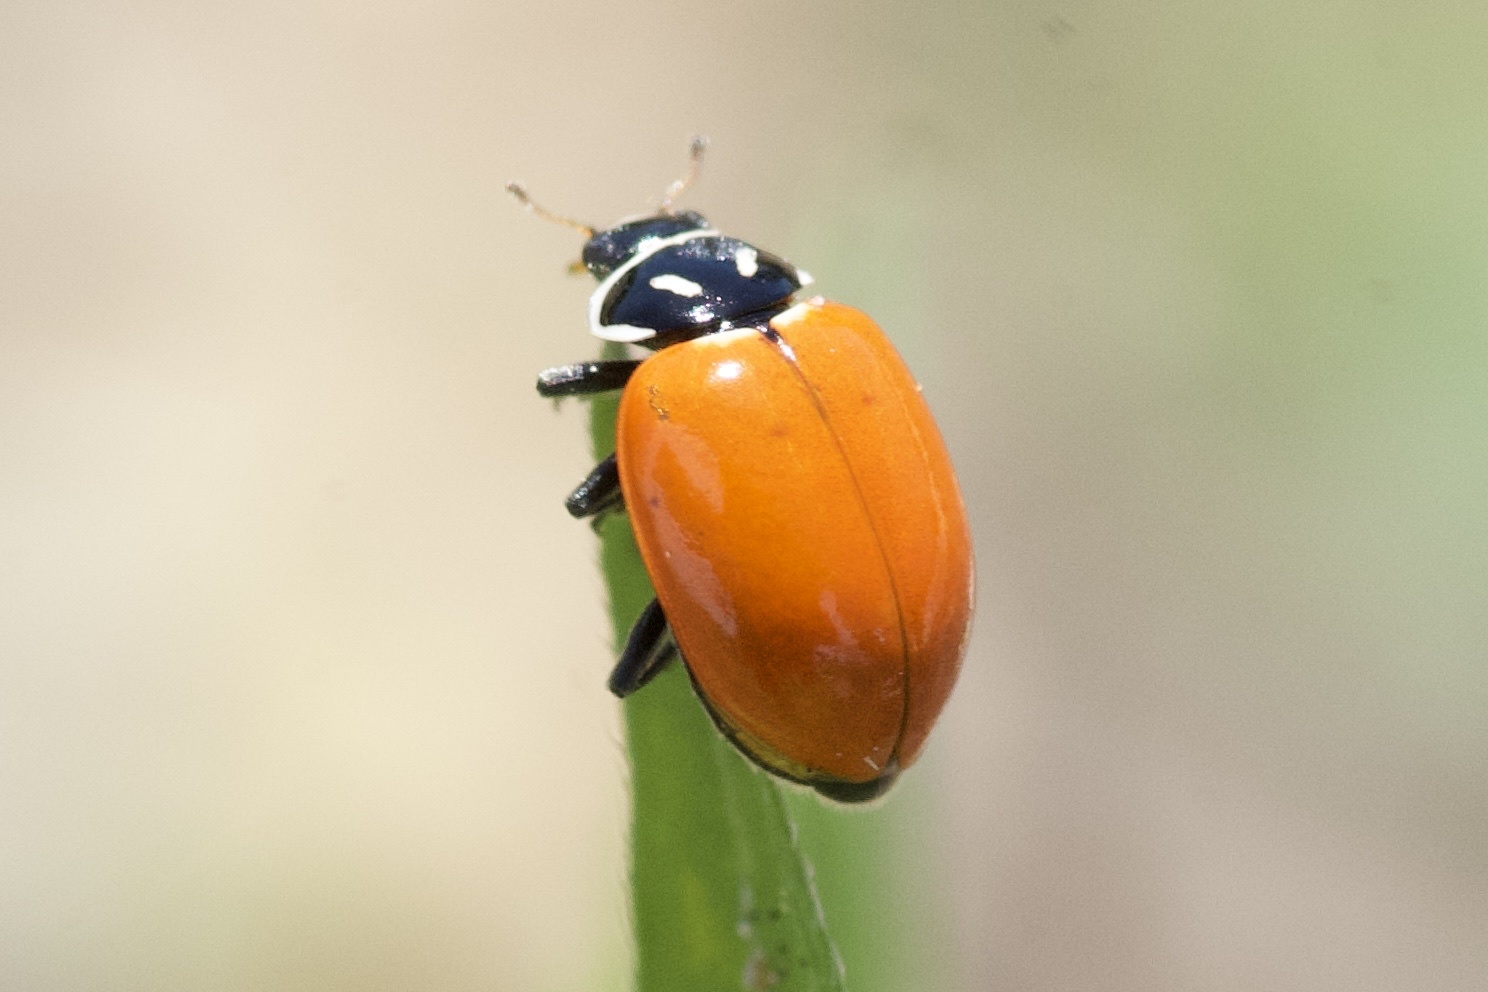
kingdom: Animalia
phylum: Arthropoda
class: Insecta
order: Coleoptera
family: Coccinellidae
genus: Hippodamia
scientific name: Hippodamia convergens
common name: Convergent lady beetle
